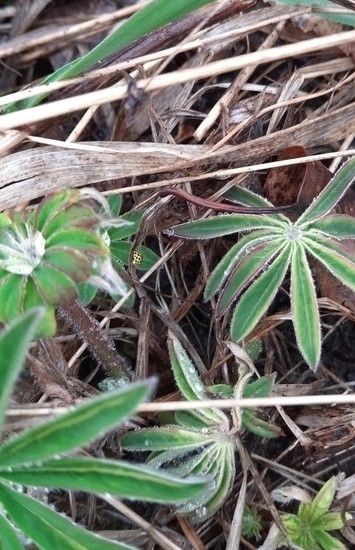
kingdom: Animalia
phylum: Arthropoda
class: Insecta
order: Coleoptera
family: Coccinellidae
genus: Psyllobora
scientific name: Psyllobora vigintiduopunctata
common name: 22-spot ladybird
